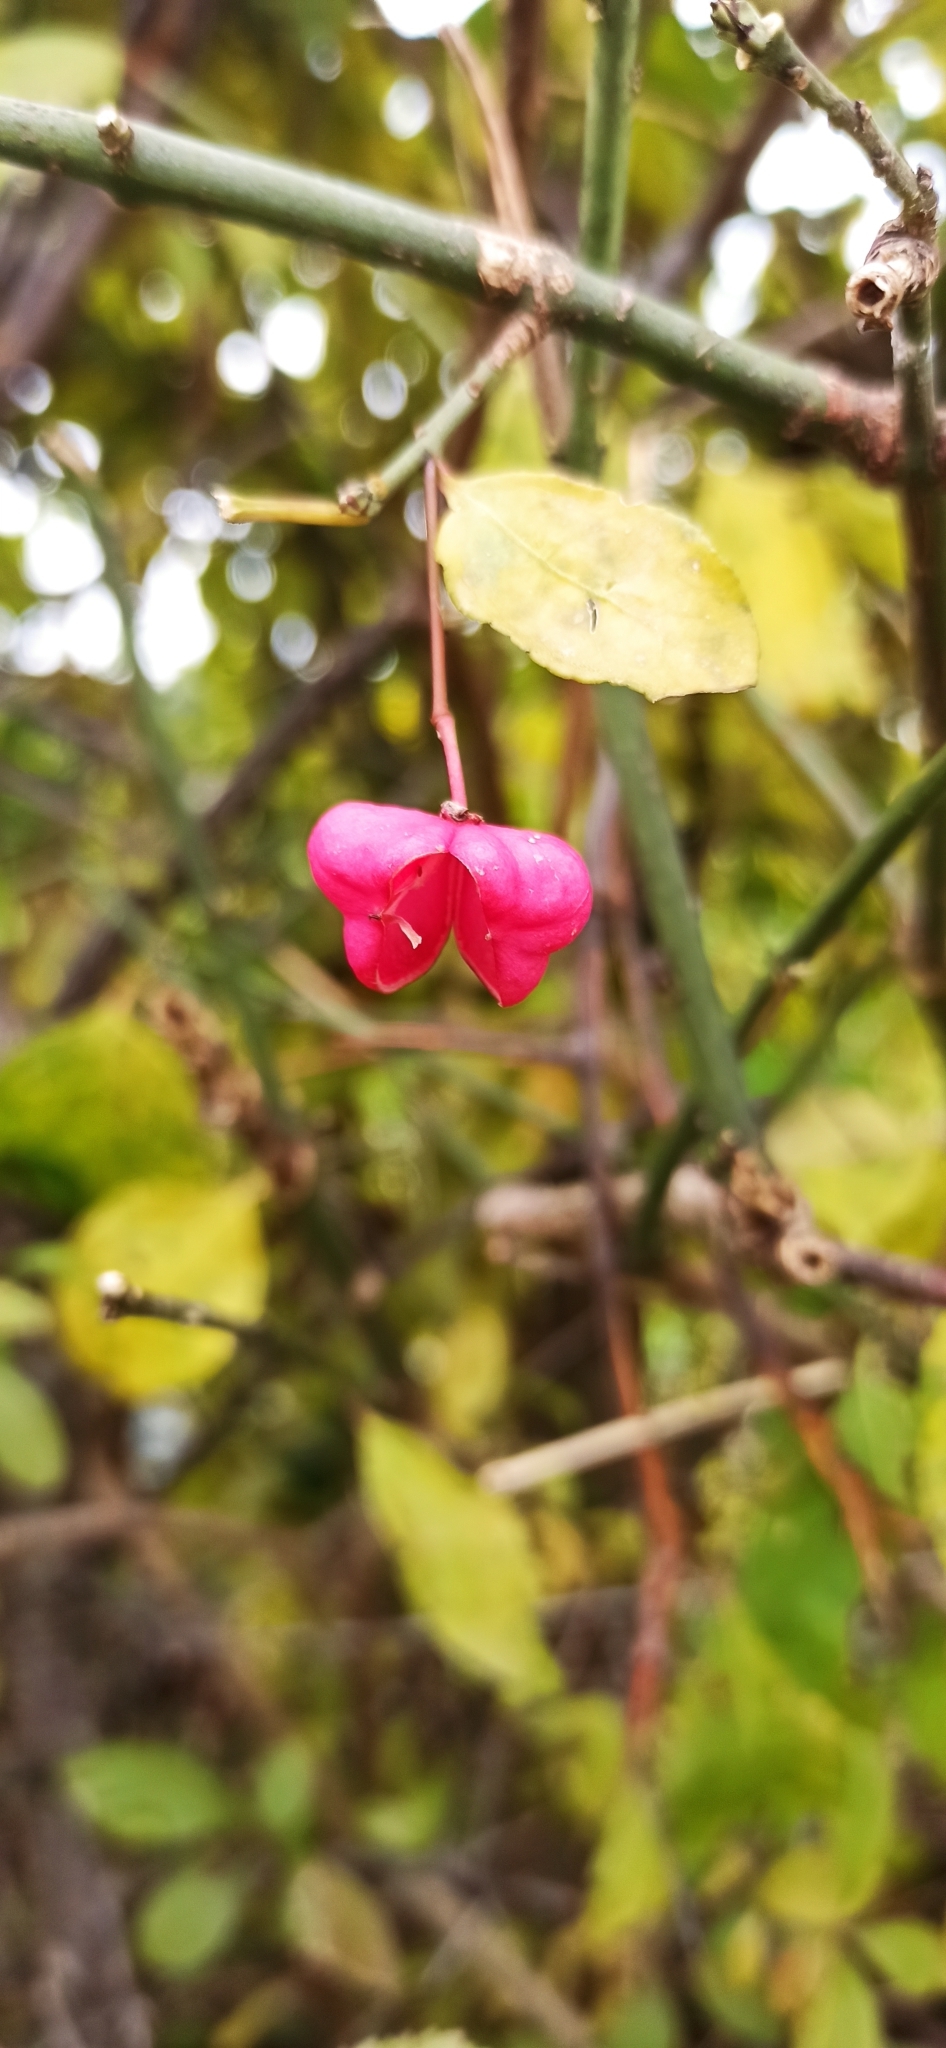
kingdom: Plantae
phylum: Tracheophyta
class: Magnoliopsida
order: Celastrales
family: Celastraceae
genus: Euonymus
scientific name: Euonymus europaeus
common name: Spindle
